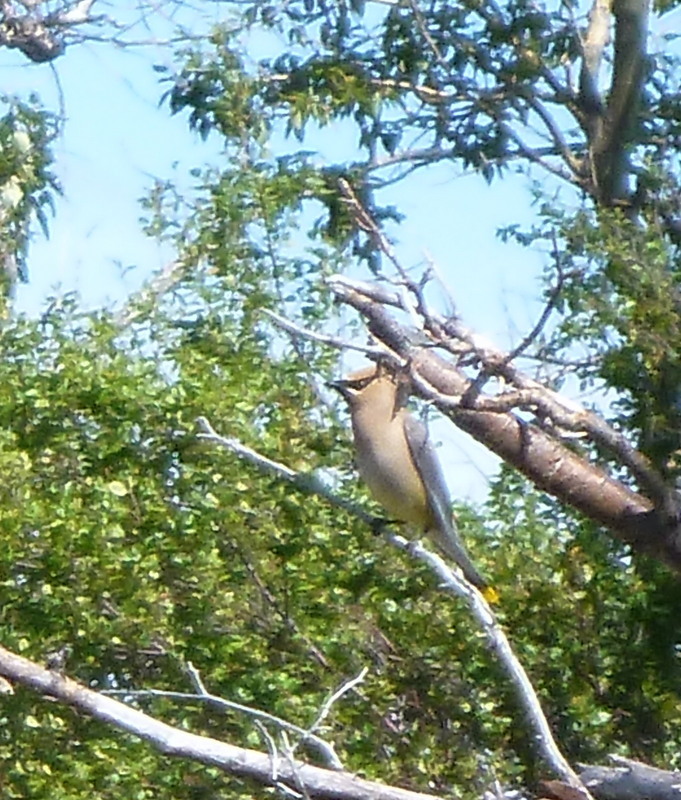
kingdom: Animalia
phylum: Chordata
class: Aves
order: Passeriformes
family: Bombycillidae
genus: Bombycilla
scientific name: Bombycilla cedrorum
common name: Cedar waxwing
